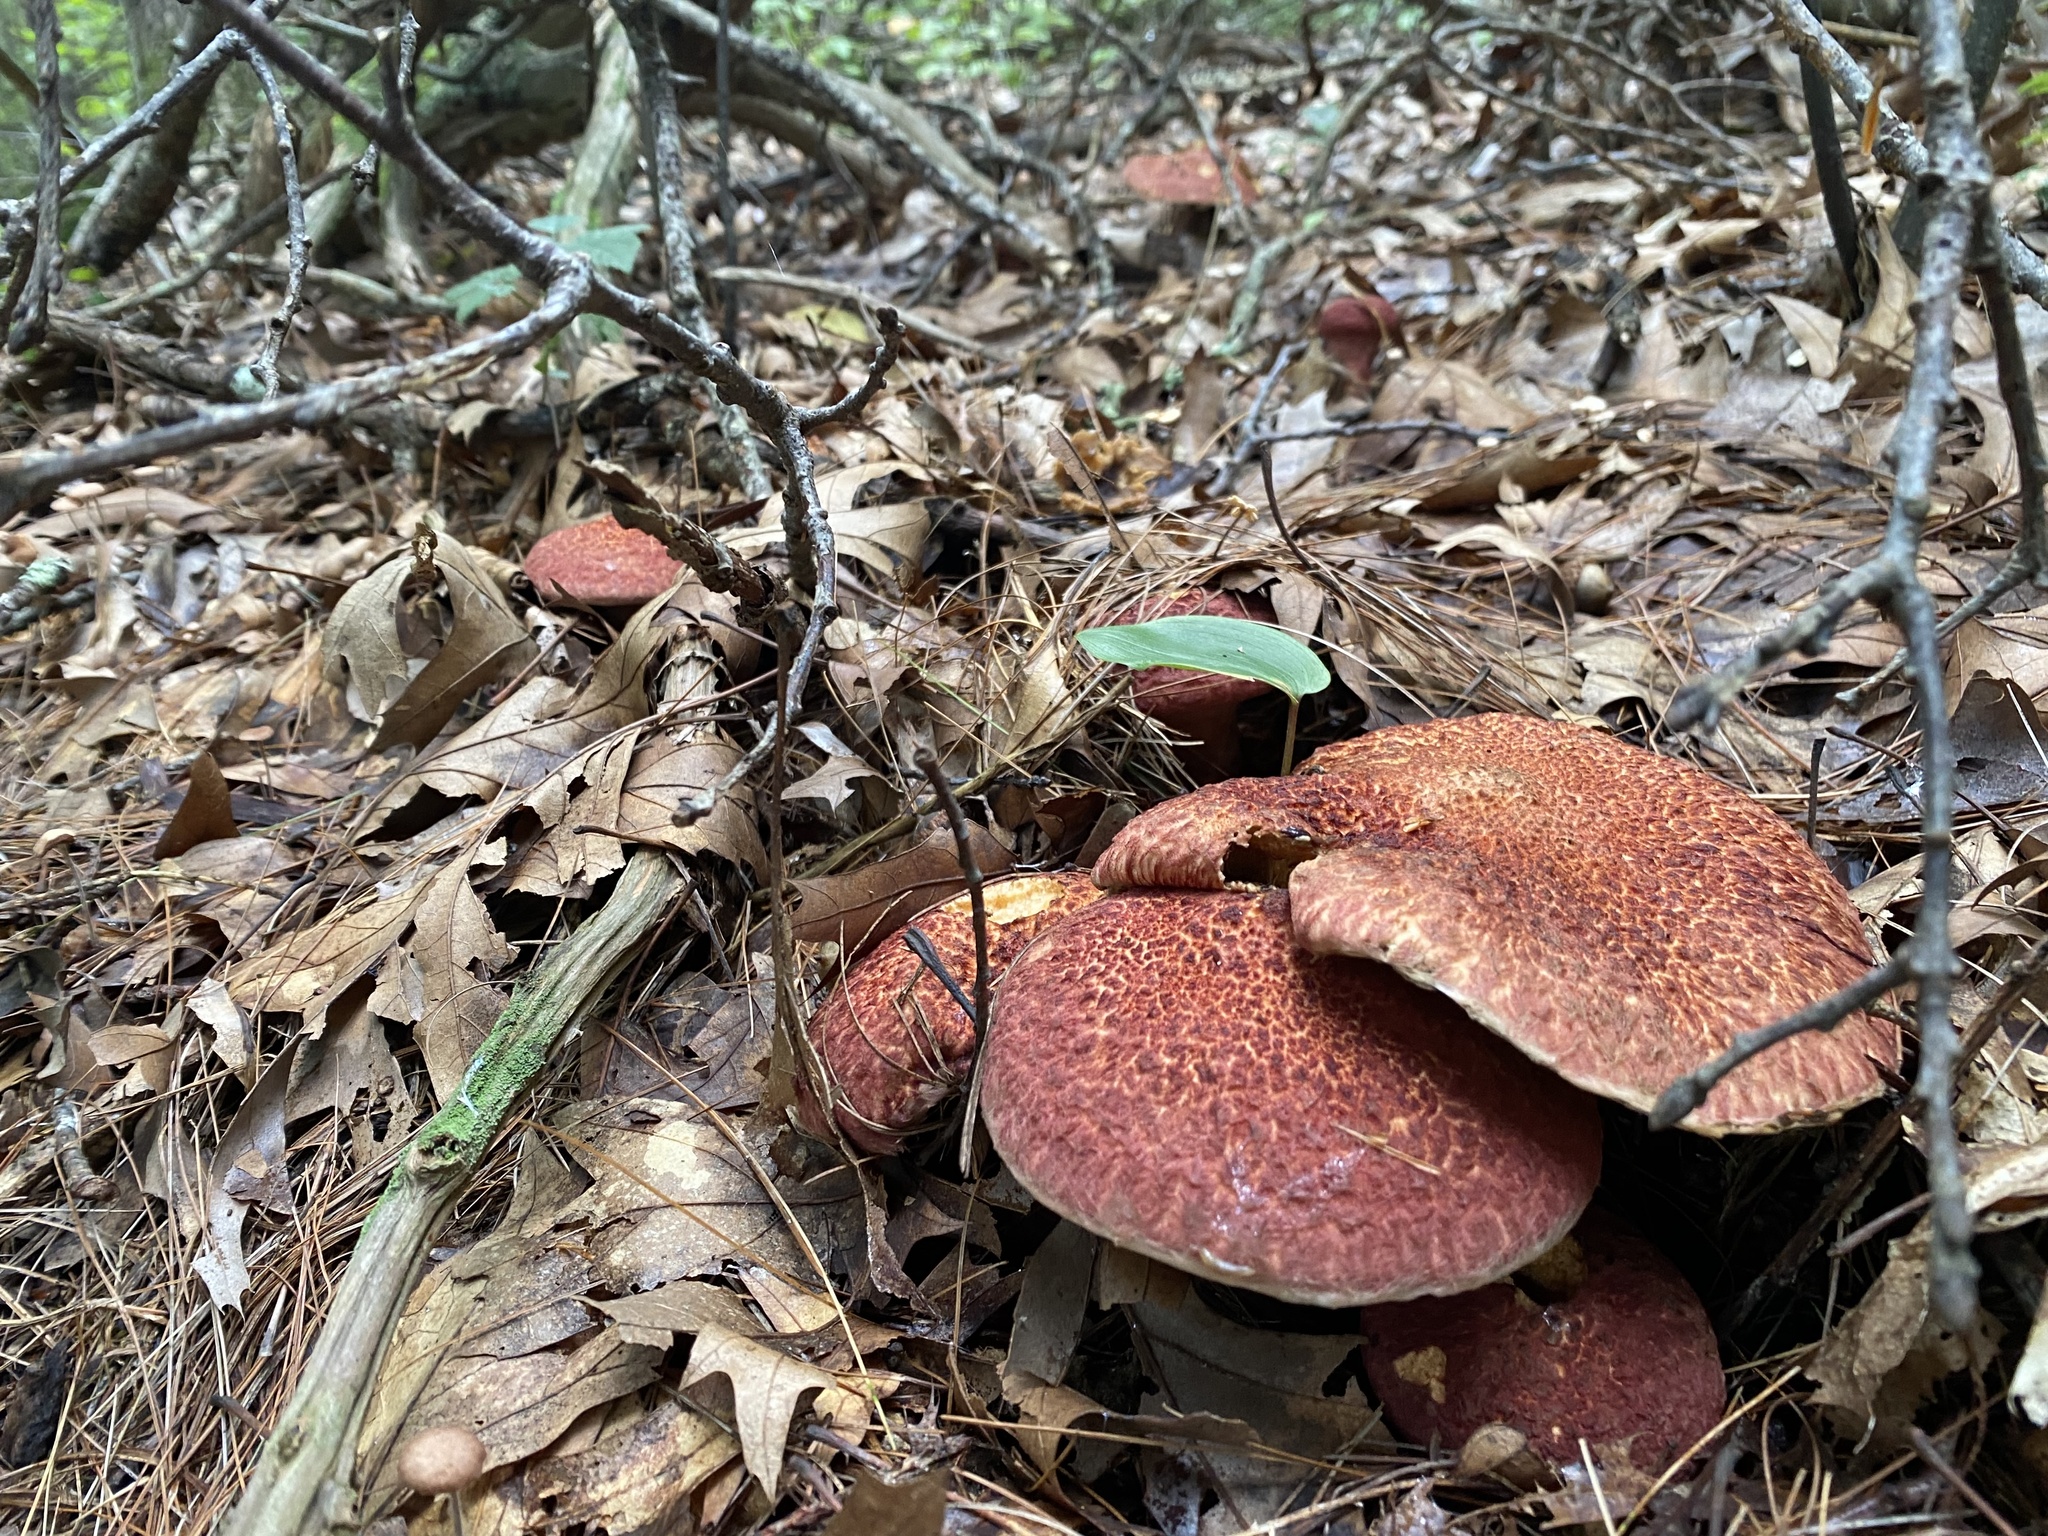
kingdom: Fungi
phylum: Basidiomycota
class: Agaricomycetes
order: Boletales
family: Suillaceae
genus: Suillus
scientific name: Suillus spraguei
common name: Painted suillus
